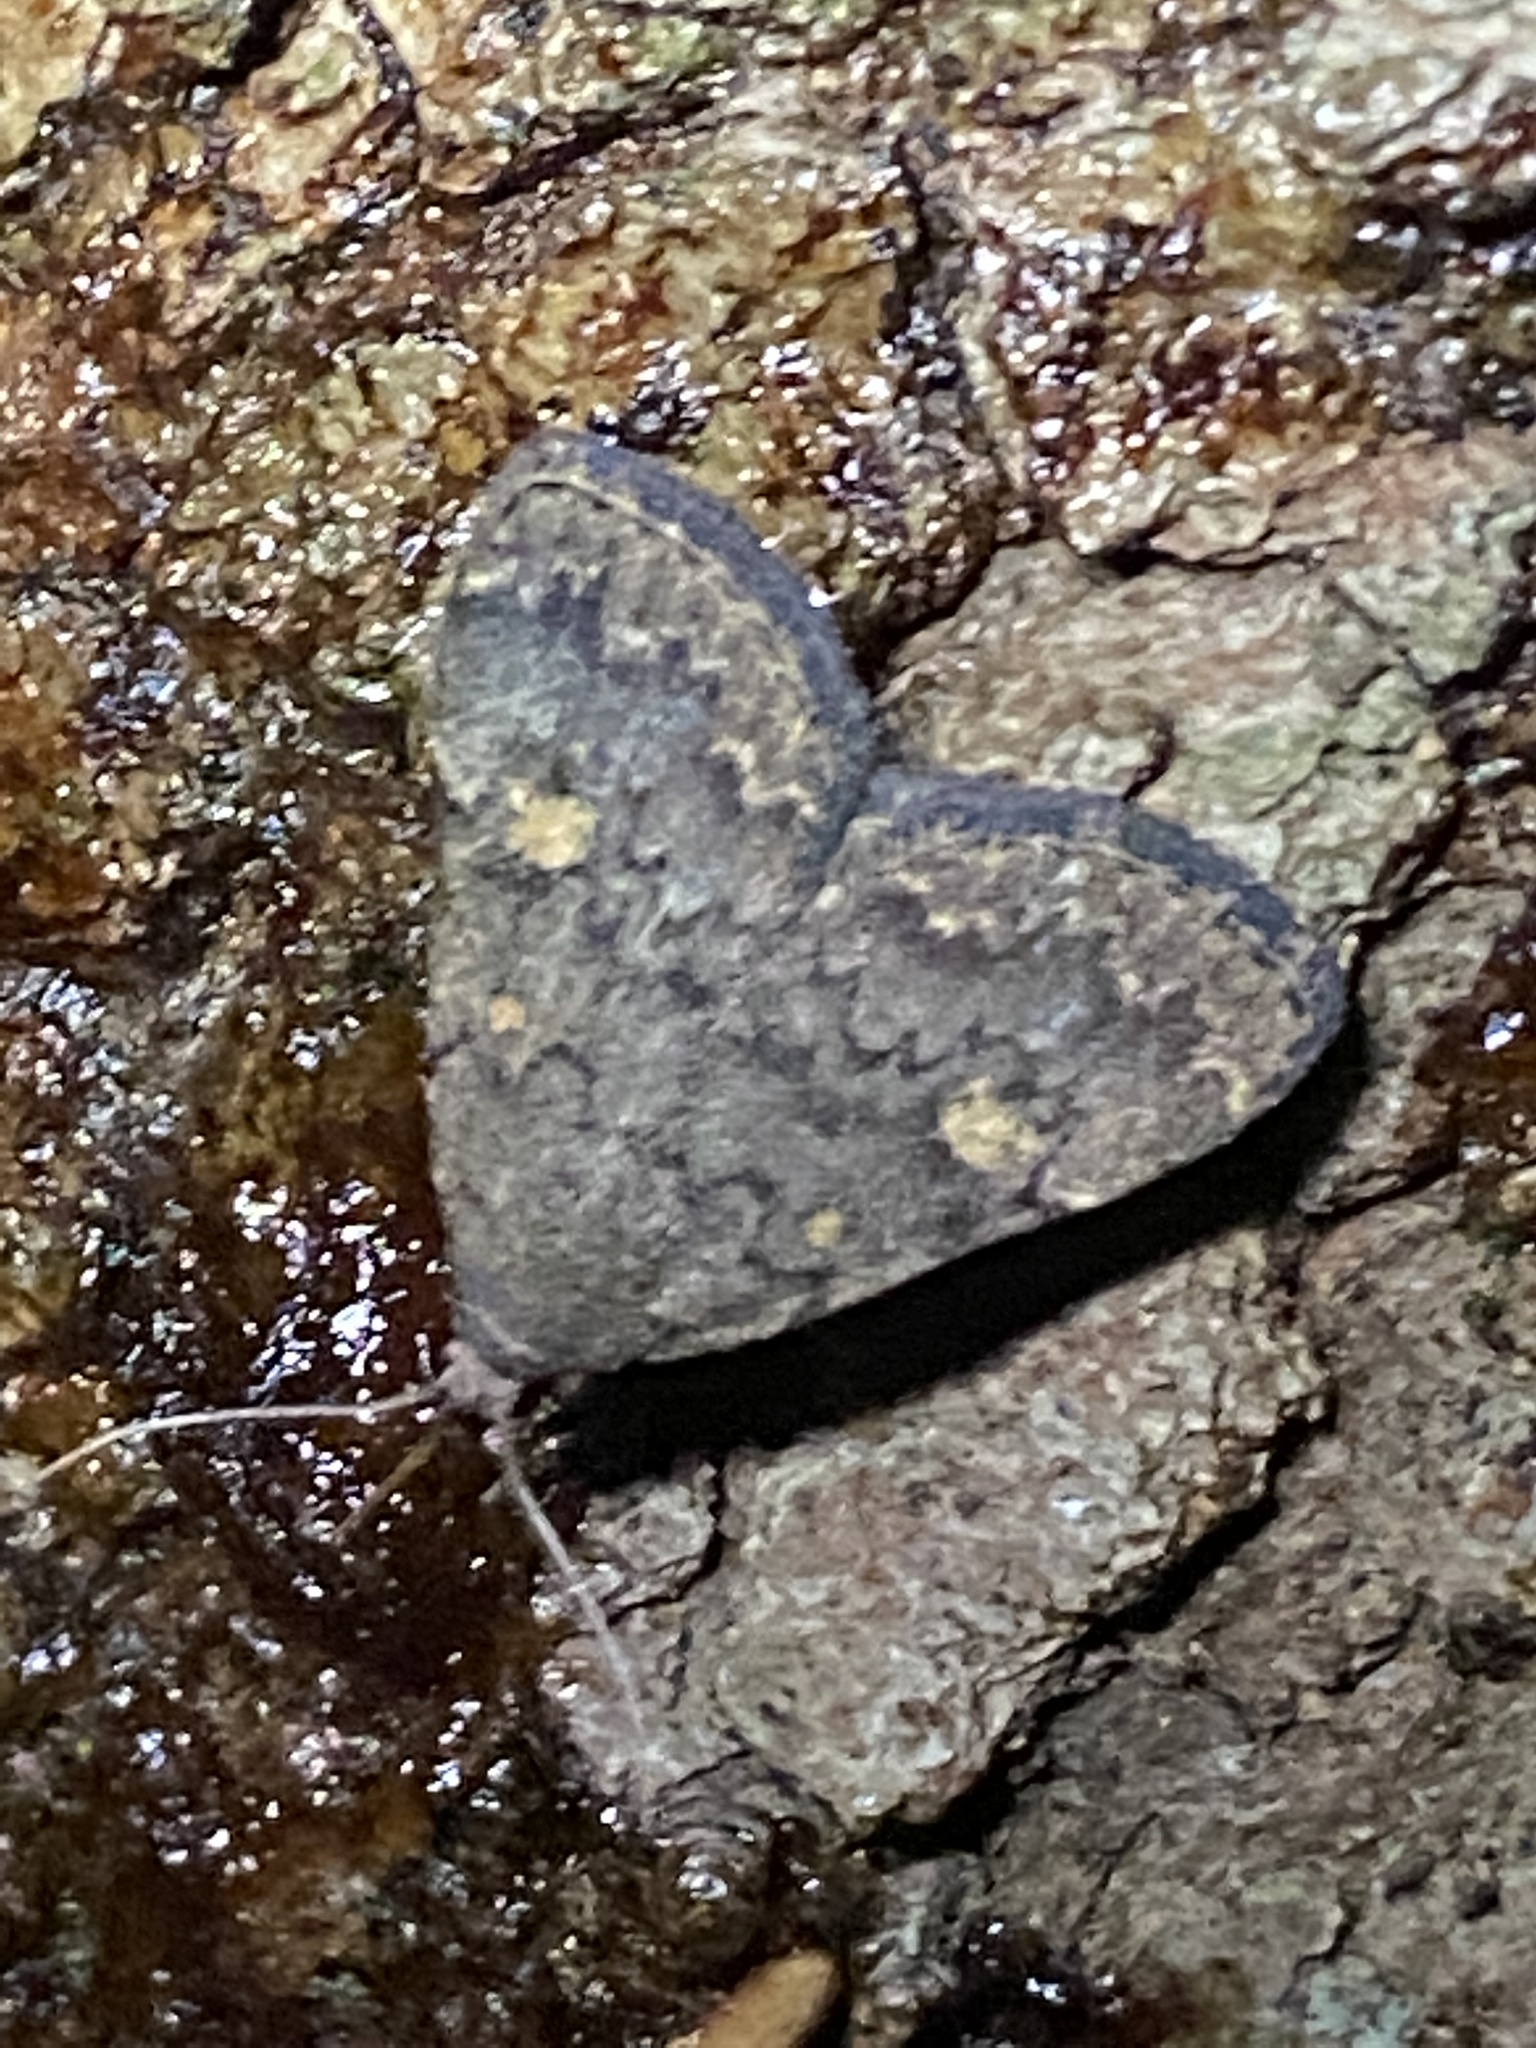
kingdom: Animalia
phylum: Arthropoda
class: Insecta
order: Lepidoptera
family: Erebidae
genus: Idia
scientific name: Idia aemula
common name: Common idia moth
